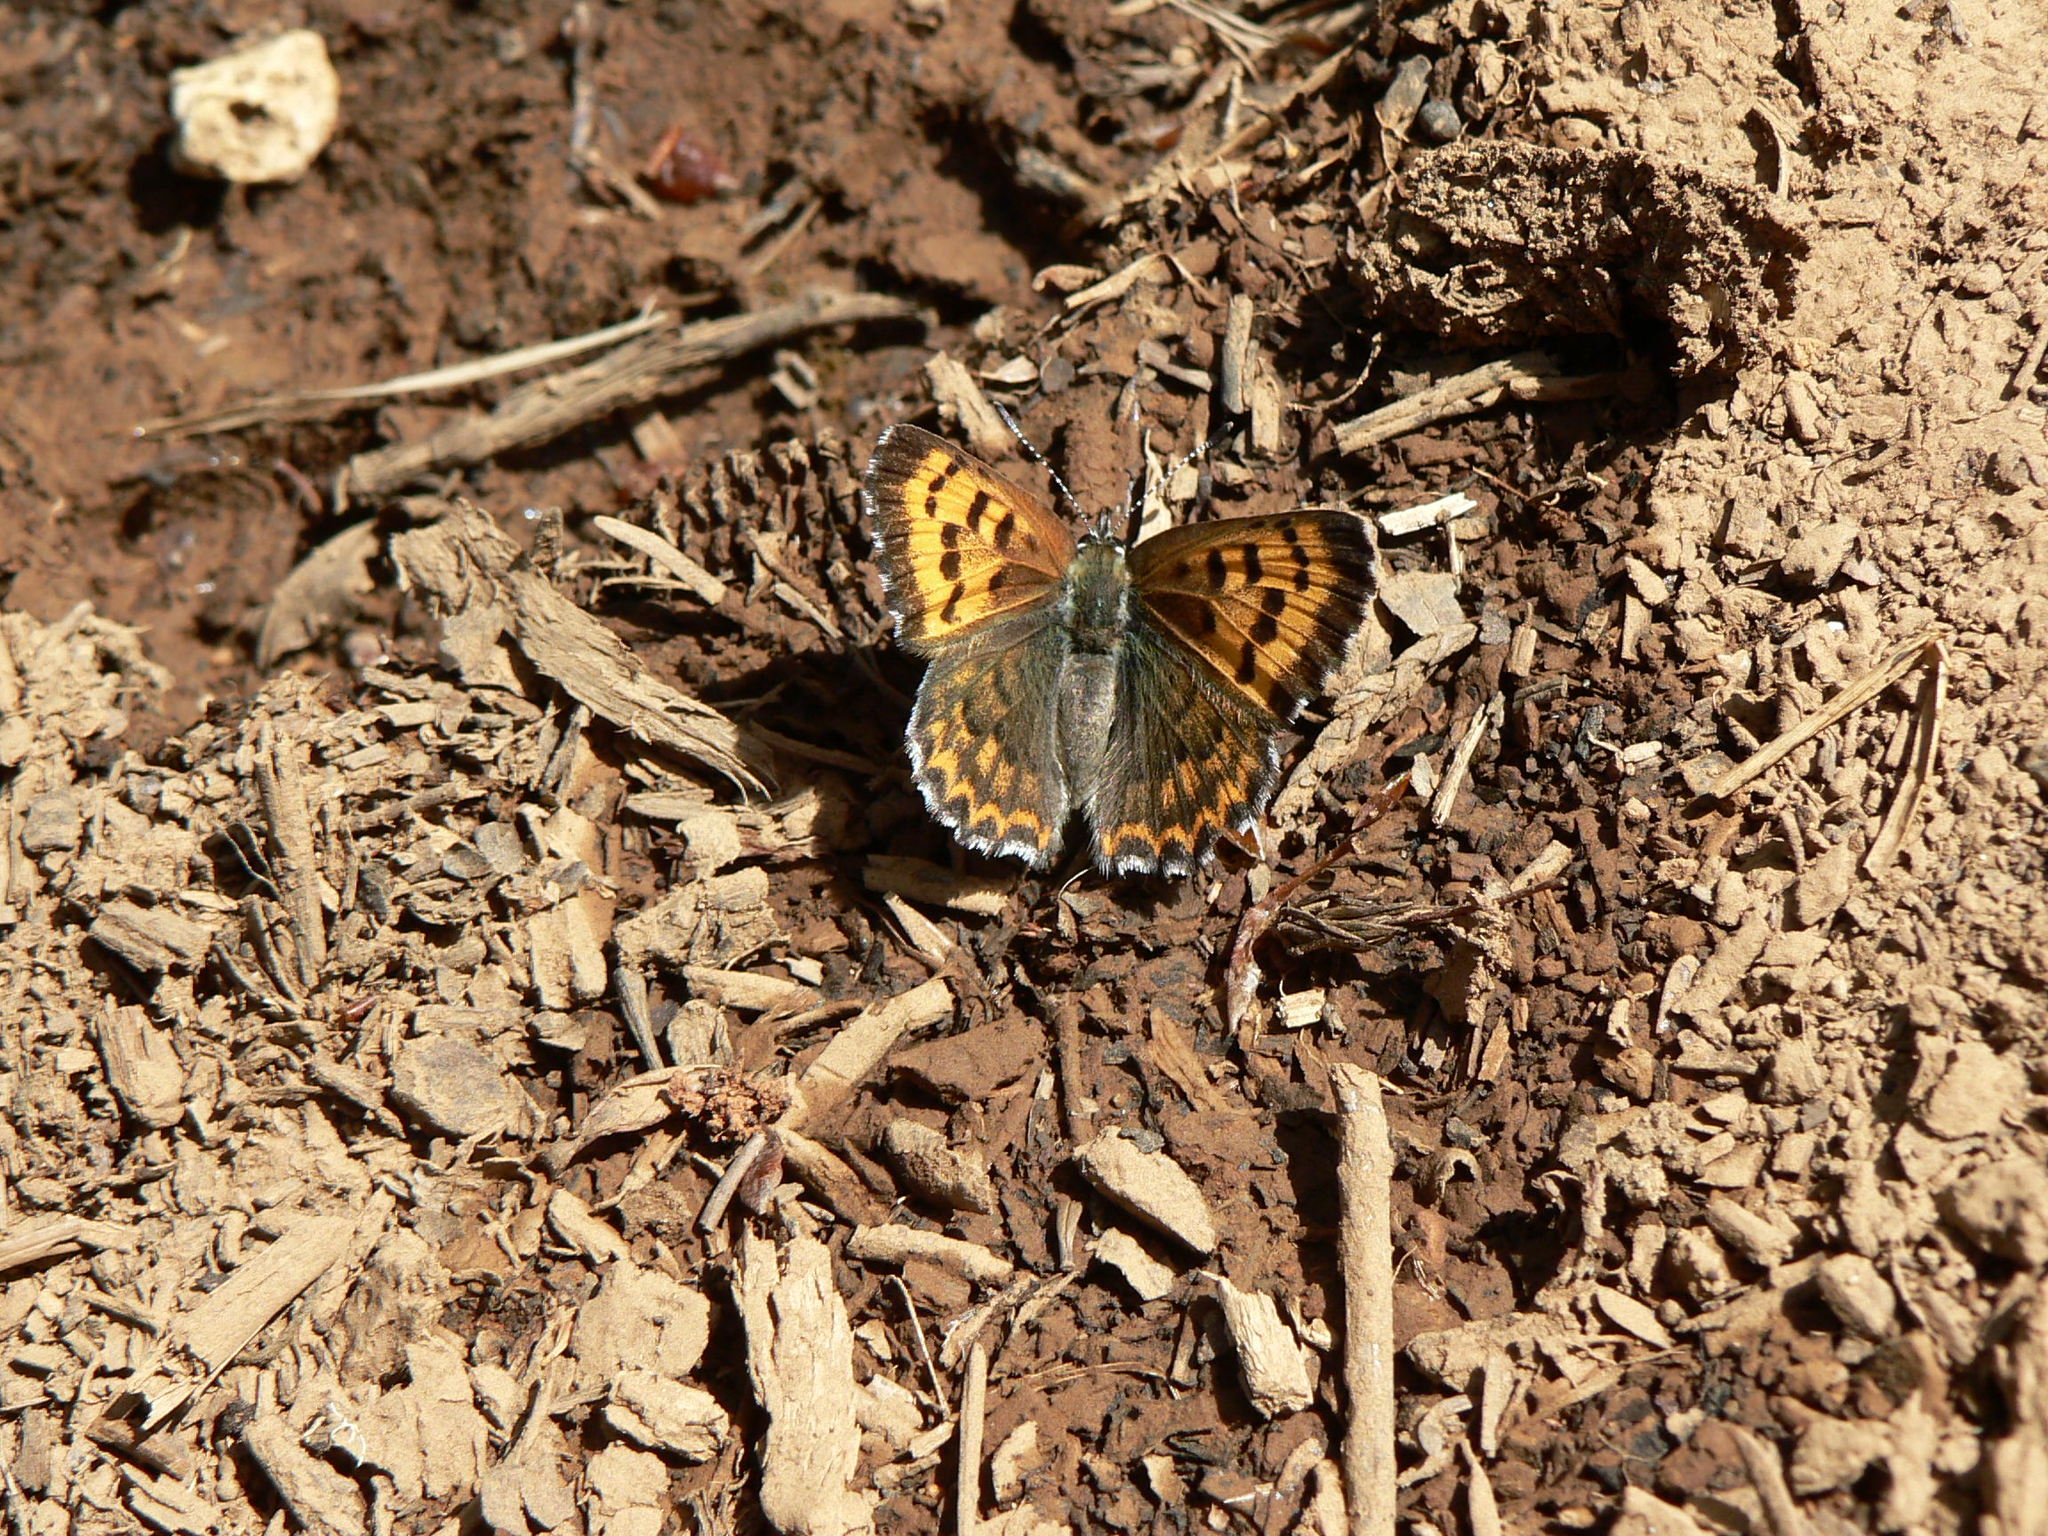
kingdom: Animalia
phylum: Arthropoda
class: Insecta
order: Lepidoptera
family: Lycaenidae
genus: Tharsalea
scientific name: Tharsalea mariposa
